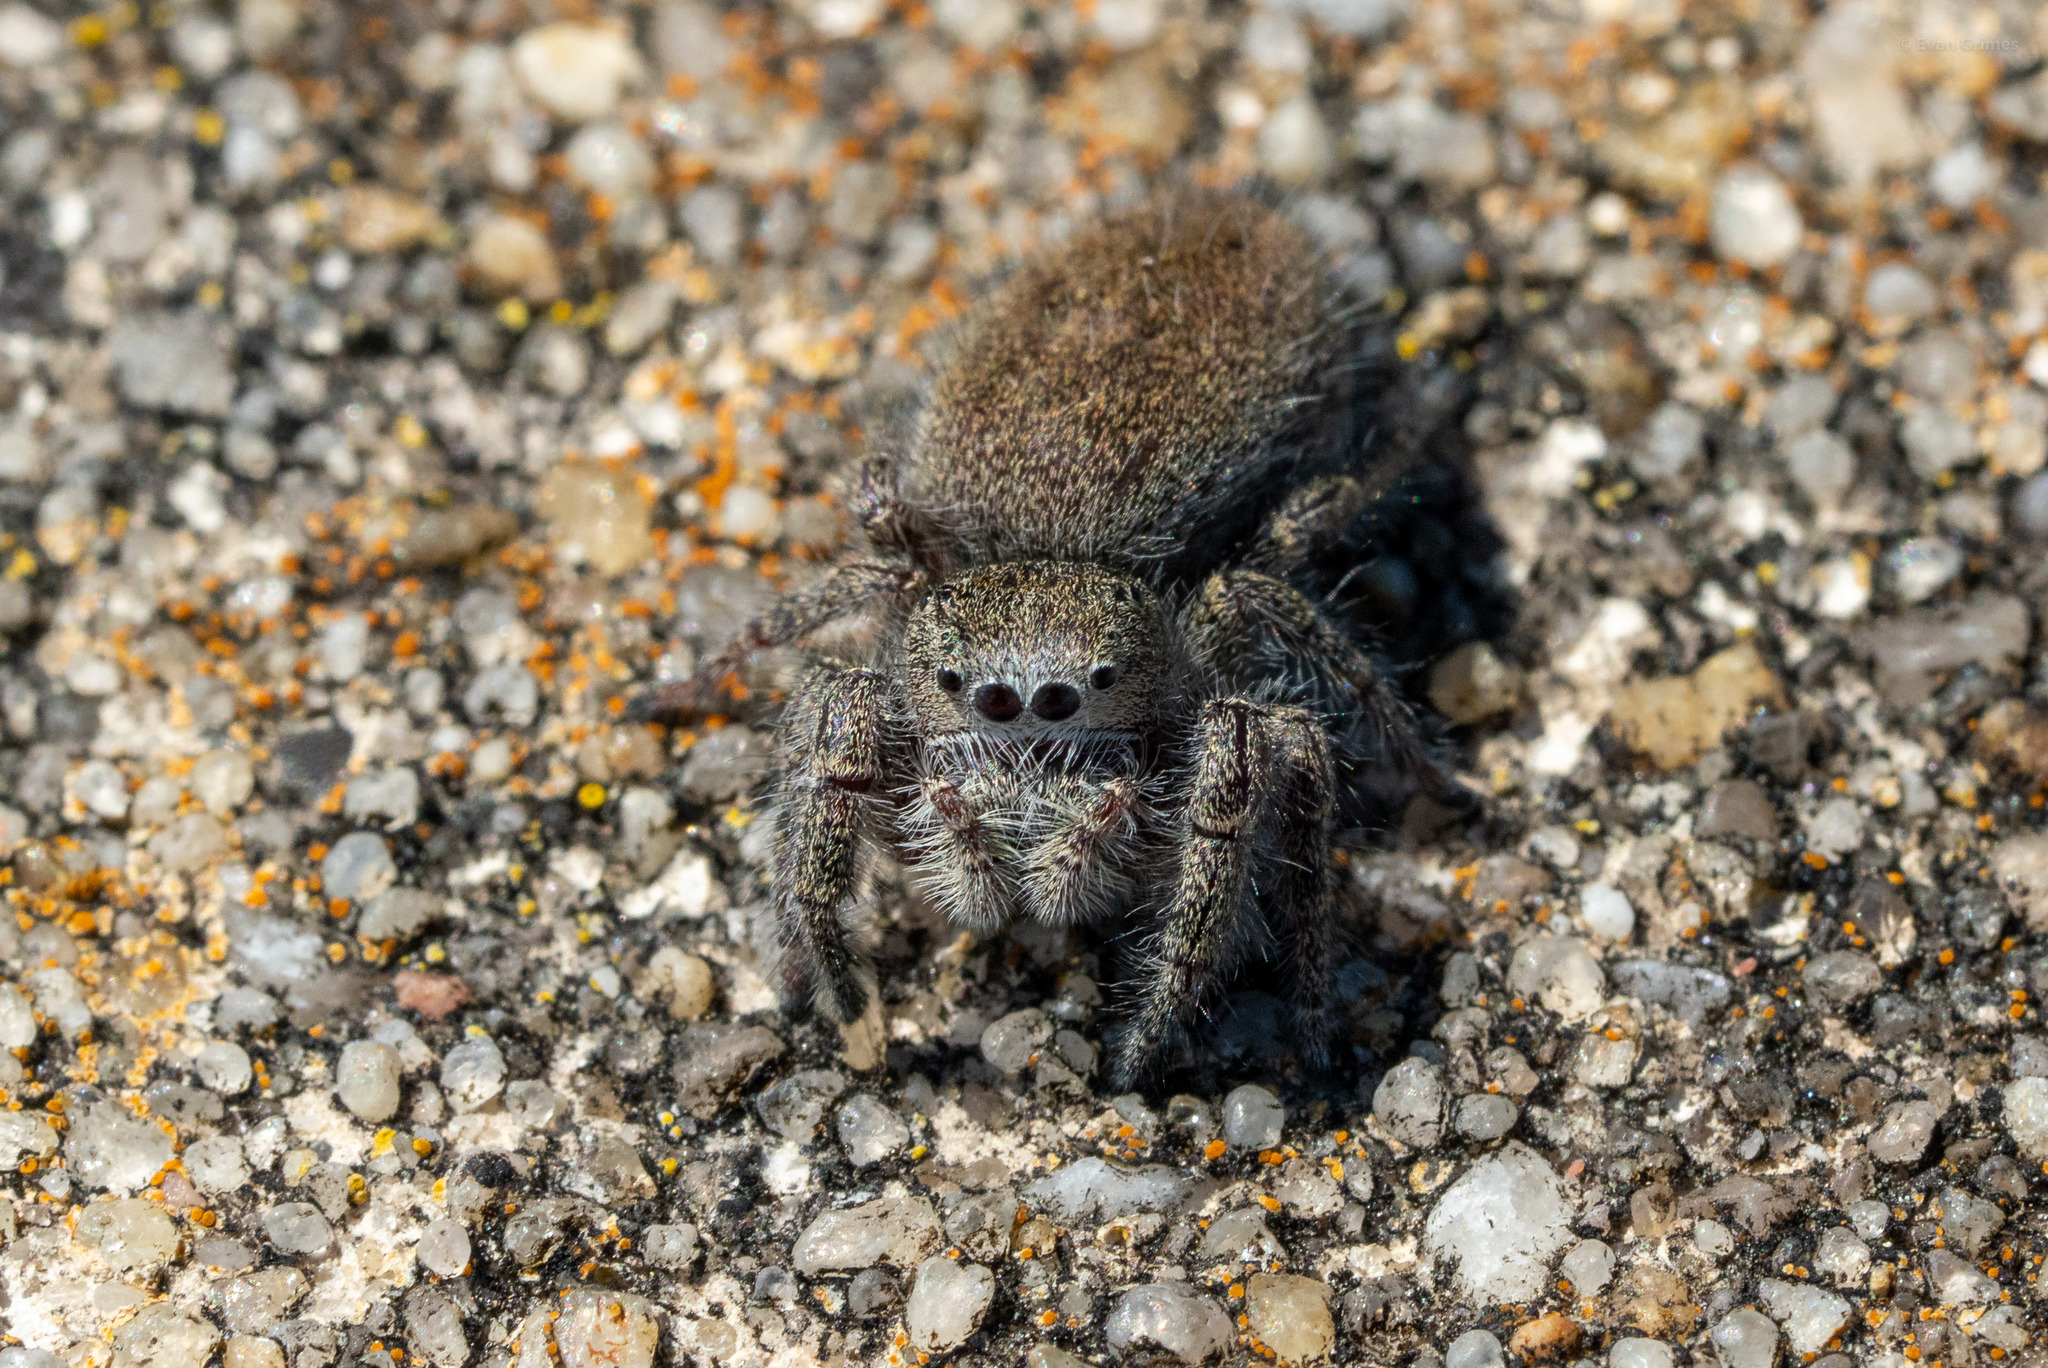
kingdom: Animalia
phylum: Arthropoda
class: Arachnida
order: Araneae
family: Salticidae
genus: Phidippus
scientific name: Phidippus princeps
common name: Grayish jumping spider
